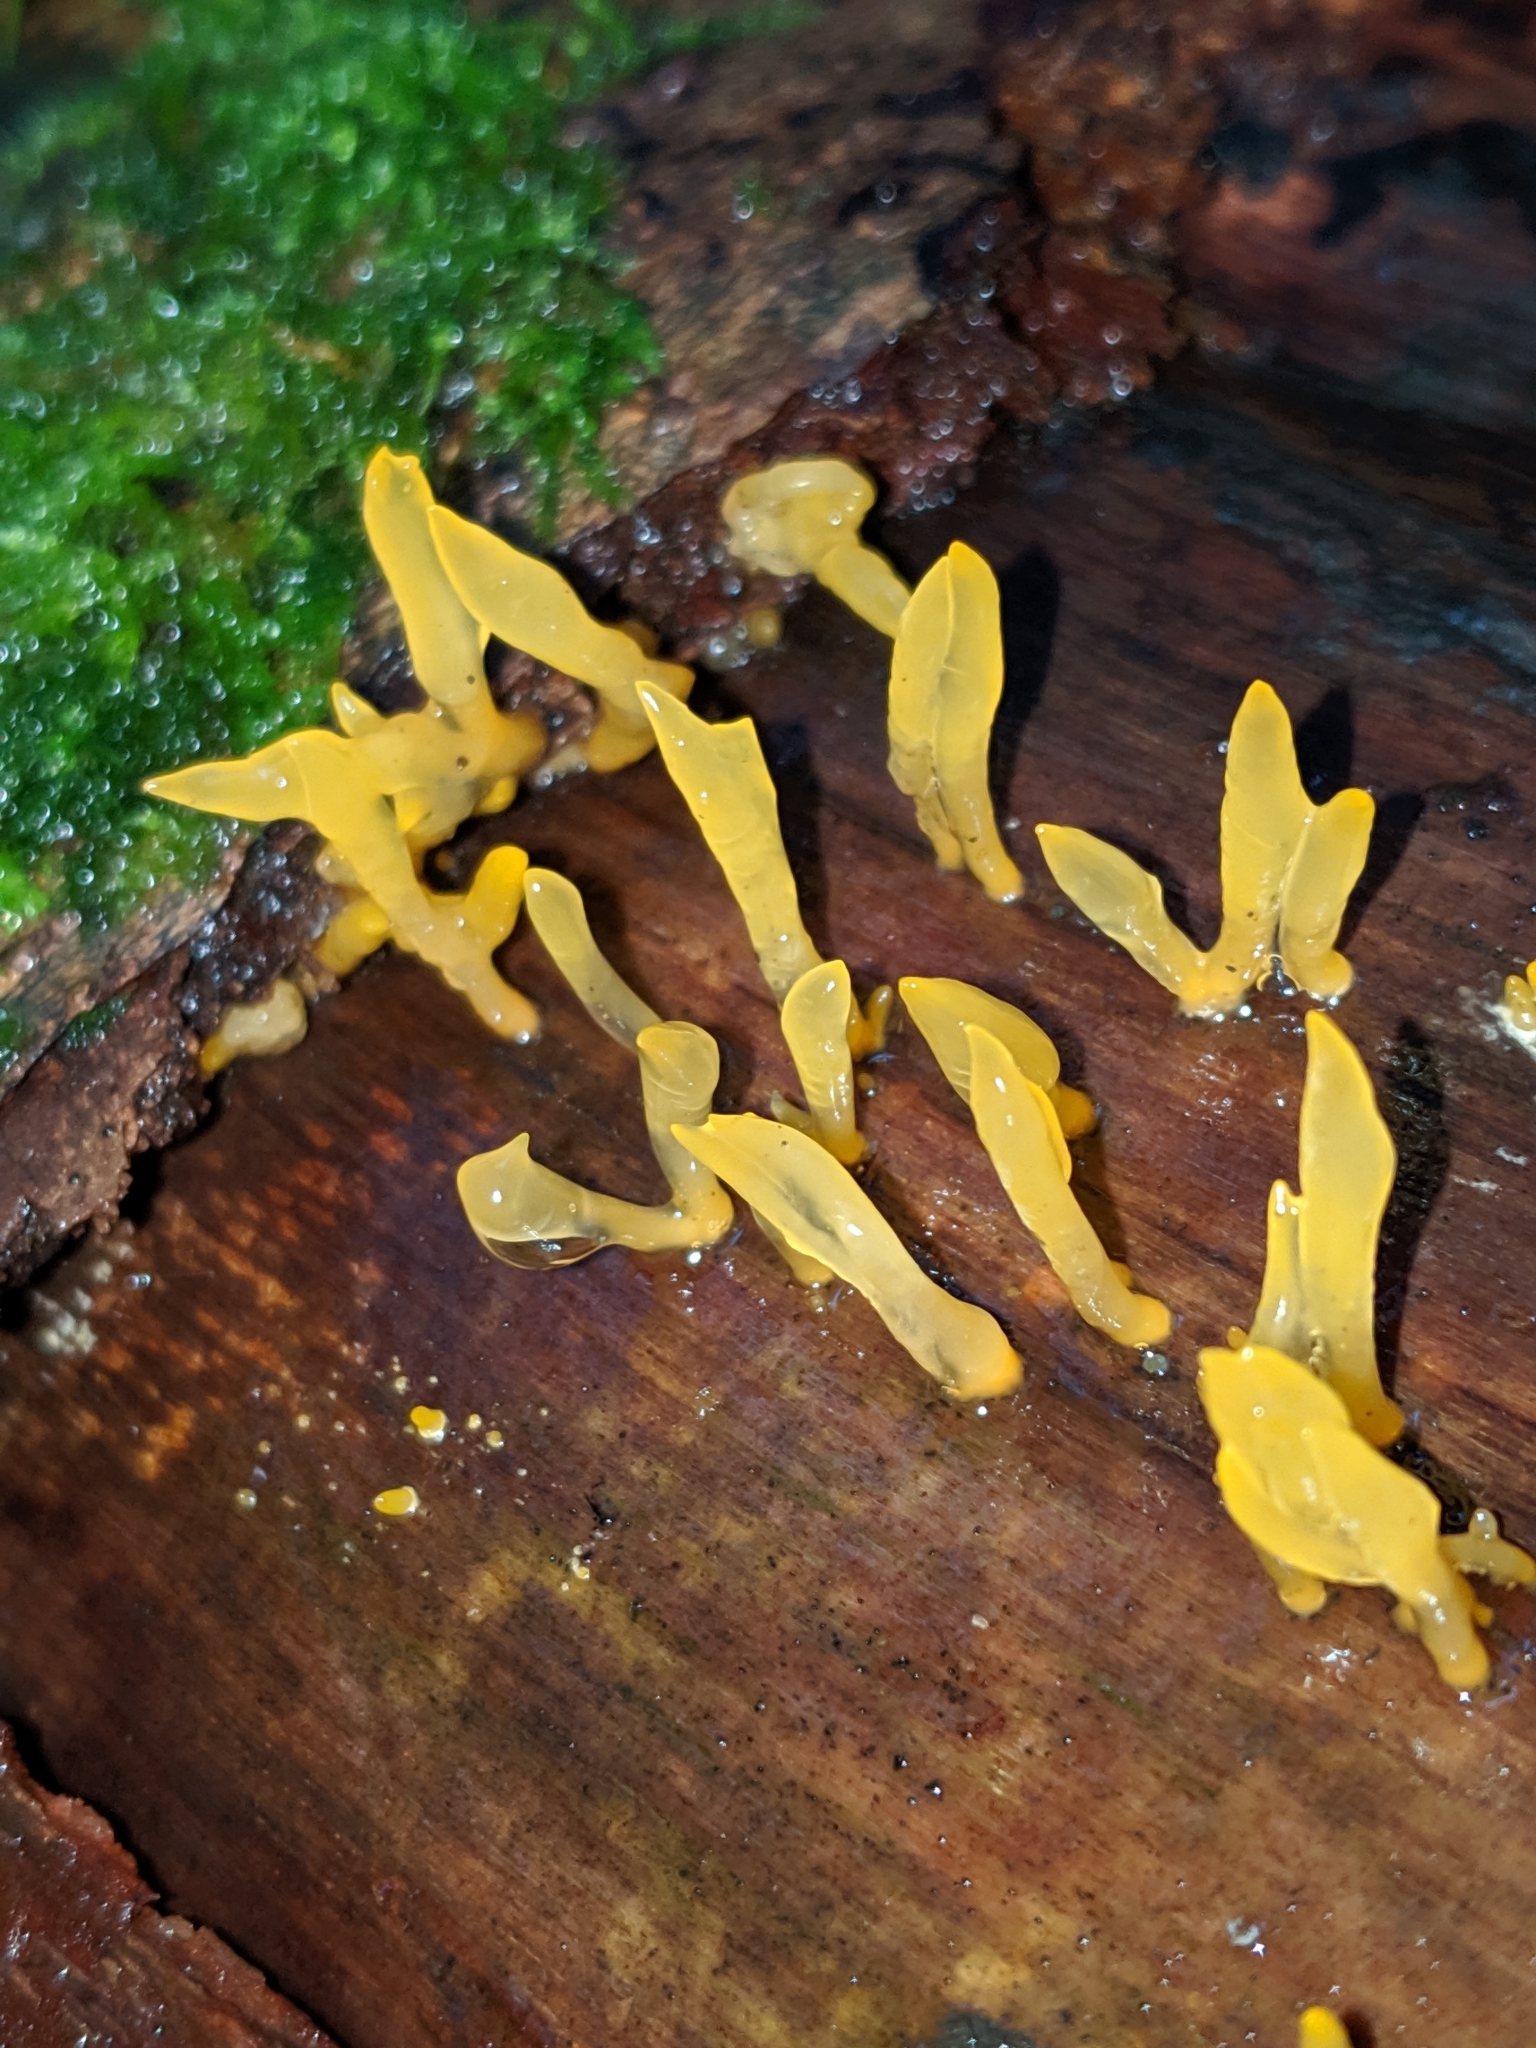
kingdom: Fungi
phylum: Basidiomycota
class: Dacrymycetes
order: Dacrymycetales
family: Dacrymycetaceae
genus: Calocera
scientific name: Calocera cornea
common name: Small stagshorn
